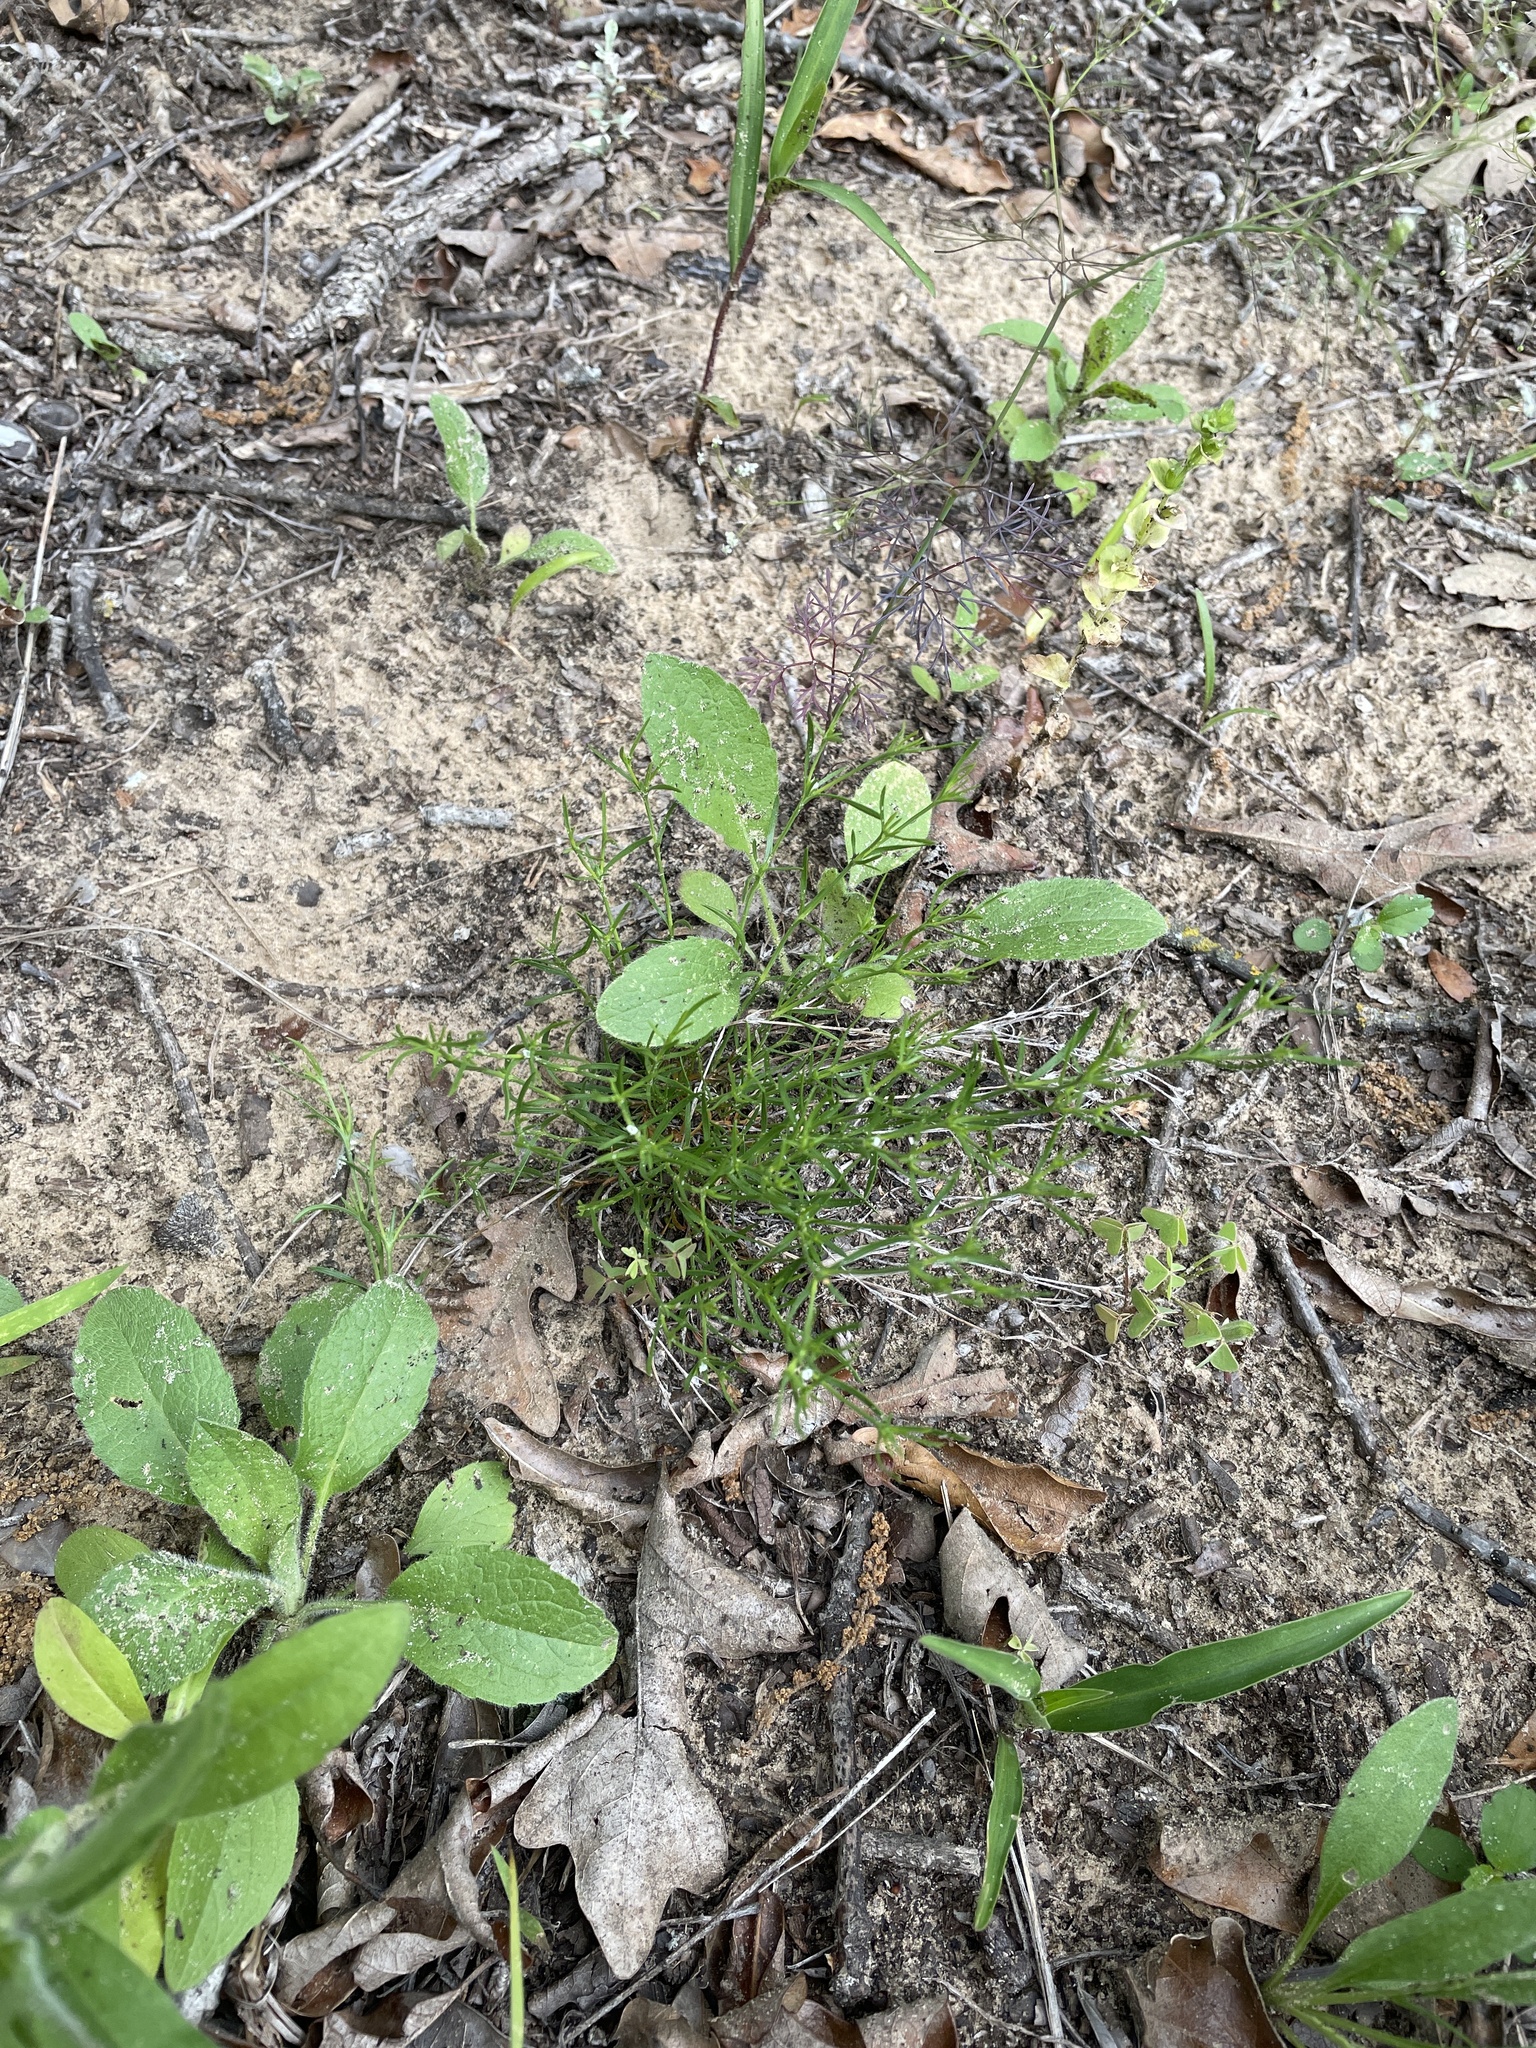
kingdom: Plantae
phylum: Tracheophyta
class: Magnoliopsida
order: Lamiales
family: Tetrachondraceae
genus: Polypremum
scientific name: Polypremum procumbens
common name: Juniper-leaf
